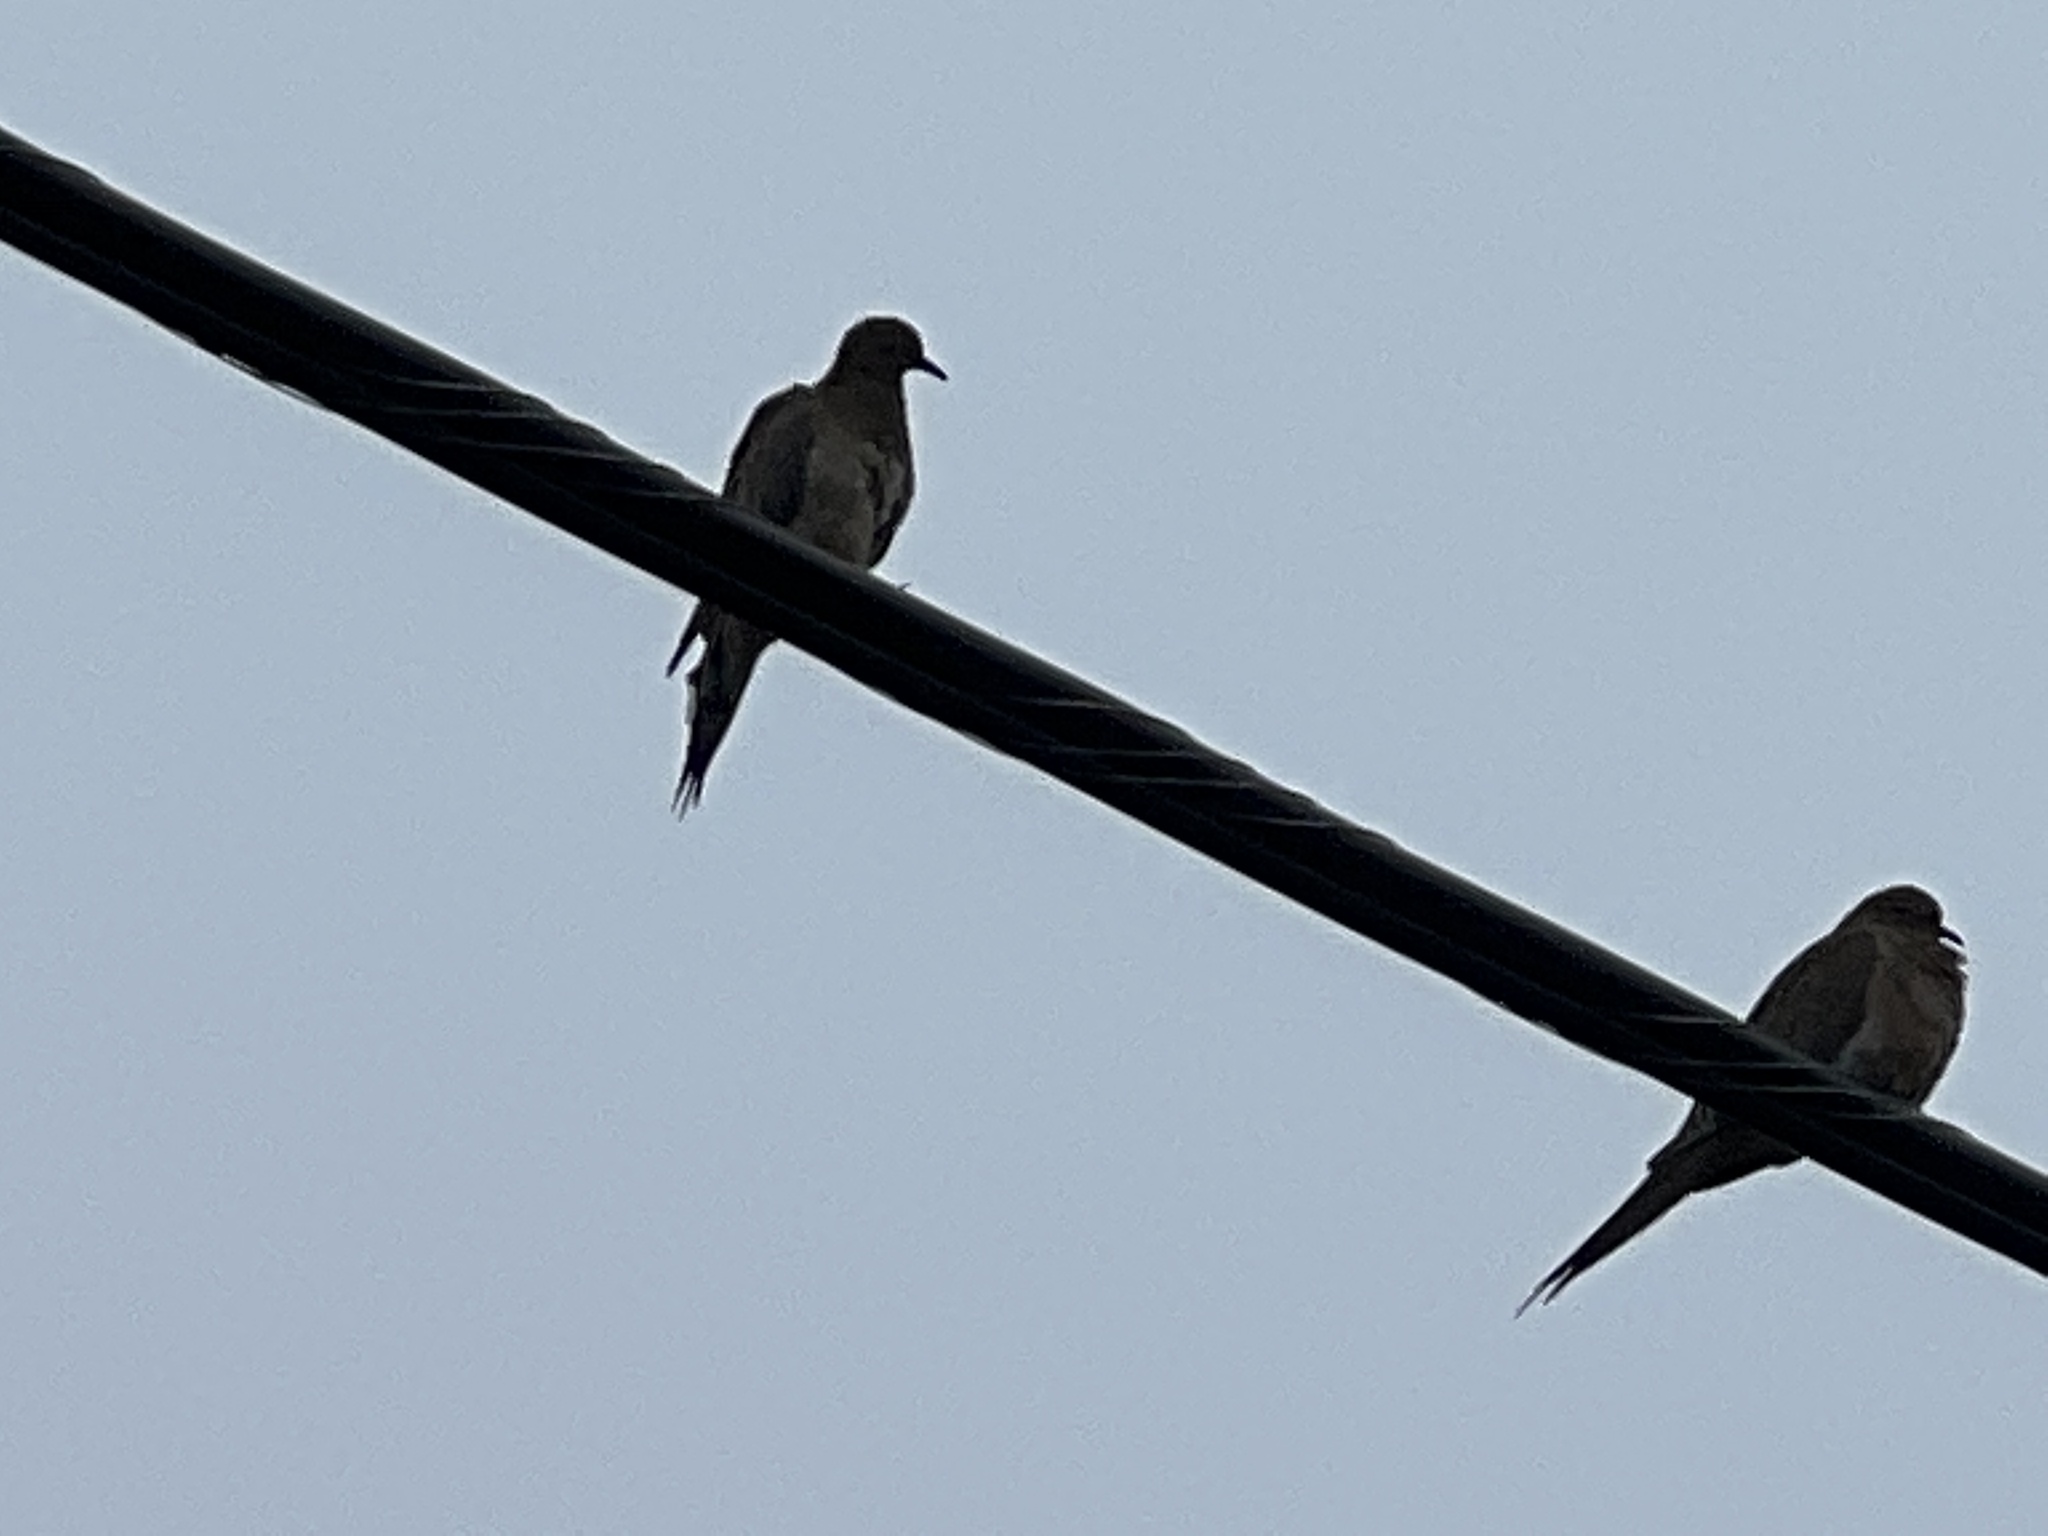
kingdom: Animalia
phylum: Chordata
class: Aves
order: Columbiformes
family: Columbidae
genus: Zenaida
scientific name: Zenaida macroura
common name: Mourning dove
